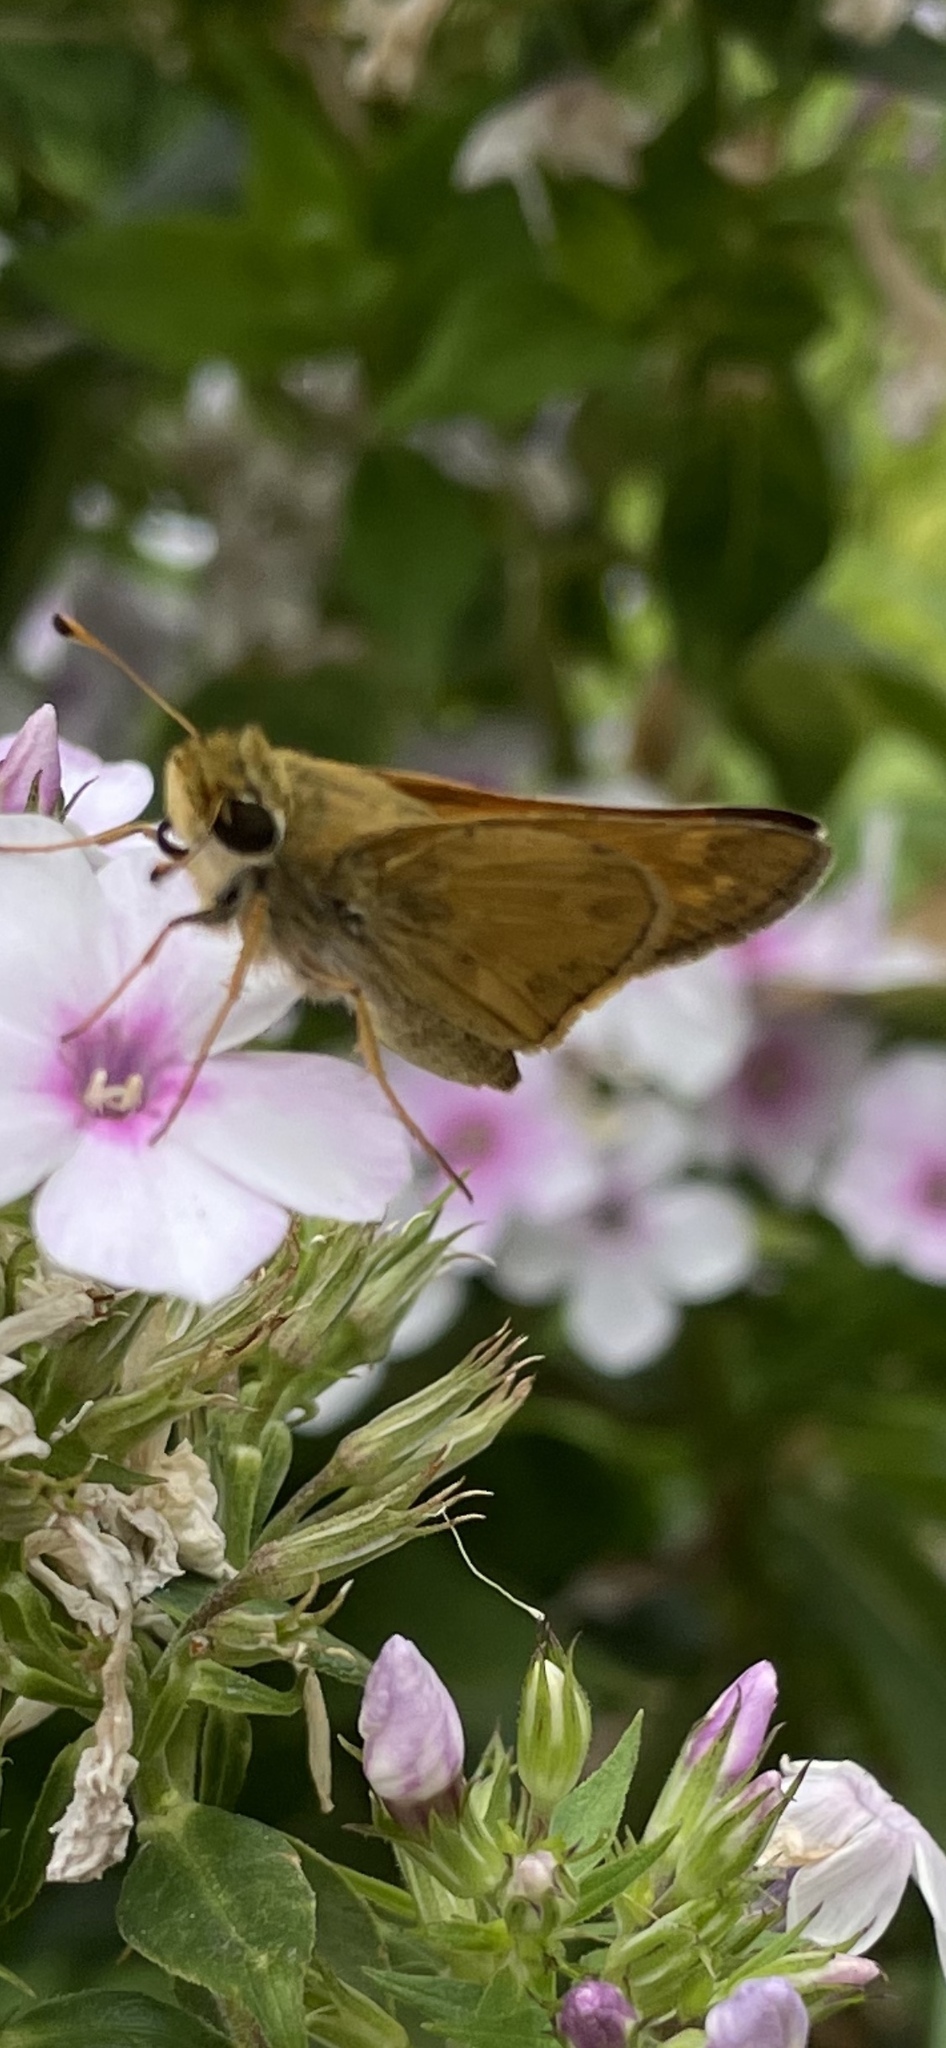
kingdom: Animalia
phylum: Arthropoda
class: Insecta
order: Lepidoptera
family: Hesperiidae
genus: Atalopedes
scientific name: Atalopedes
